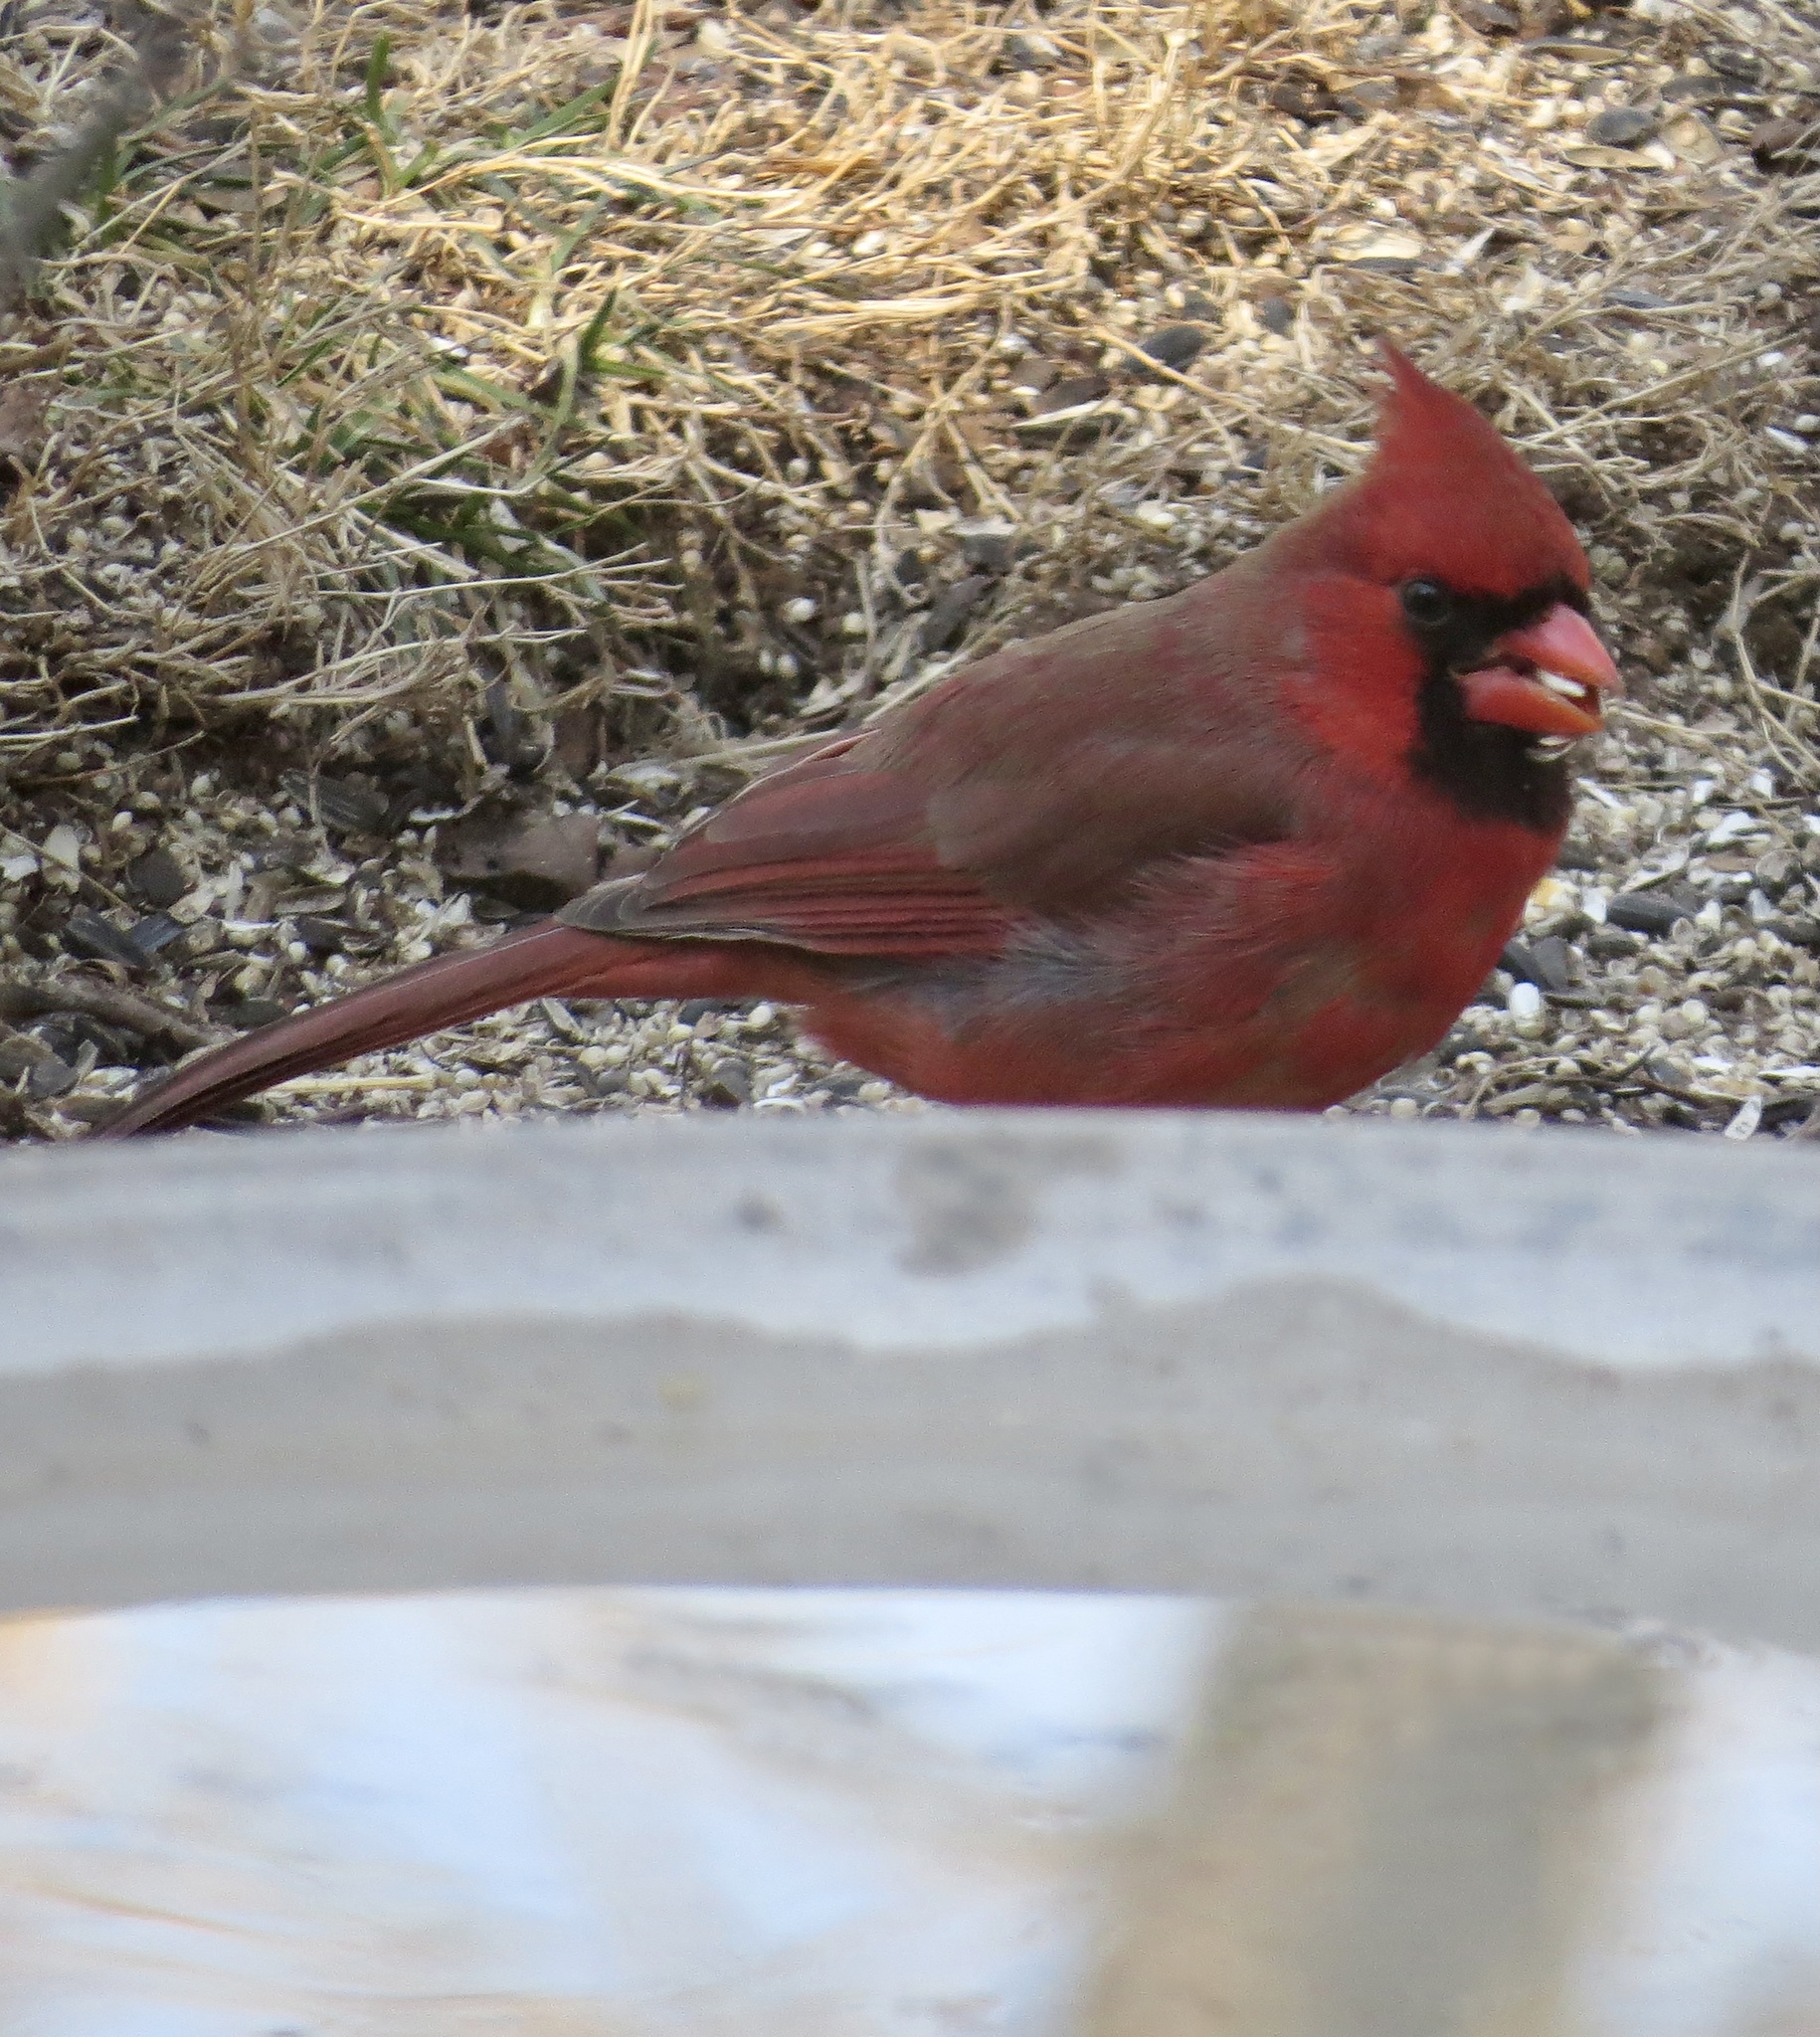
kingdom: Animalia
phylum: Chordata
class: Aves
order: Passeriformes
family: Cardinalidae
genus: Cardinalis
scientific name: Cardinalis cardinalis
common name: Northern cardinal
